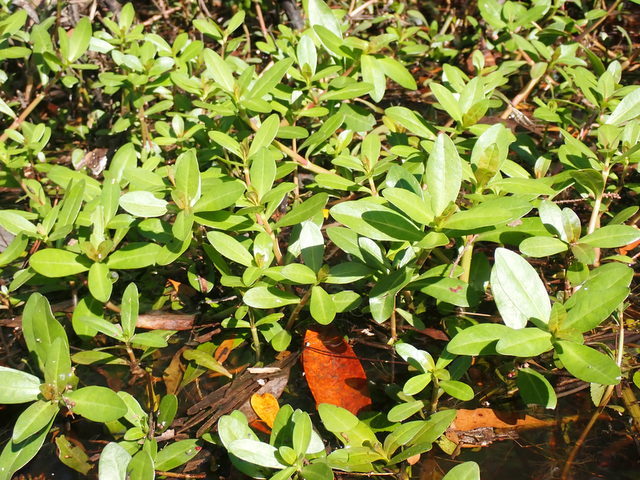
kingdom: Plantae
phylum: Tracheophyta
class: Magnoliopsida
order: Caryophyllales
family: Amaranthaceae
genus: Alternanthera
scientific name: Alternanthera philoxeroides
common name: Alligatorweed
